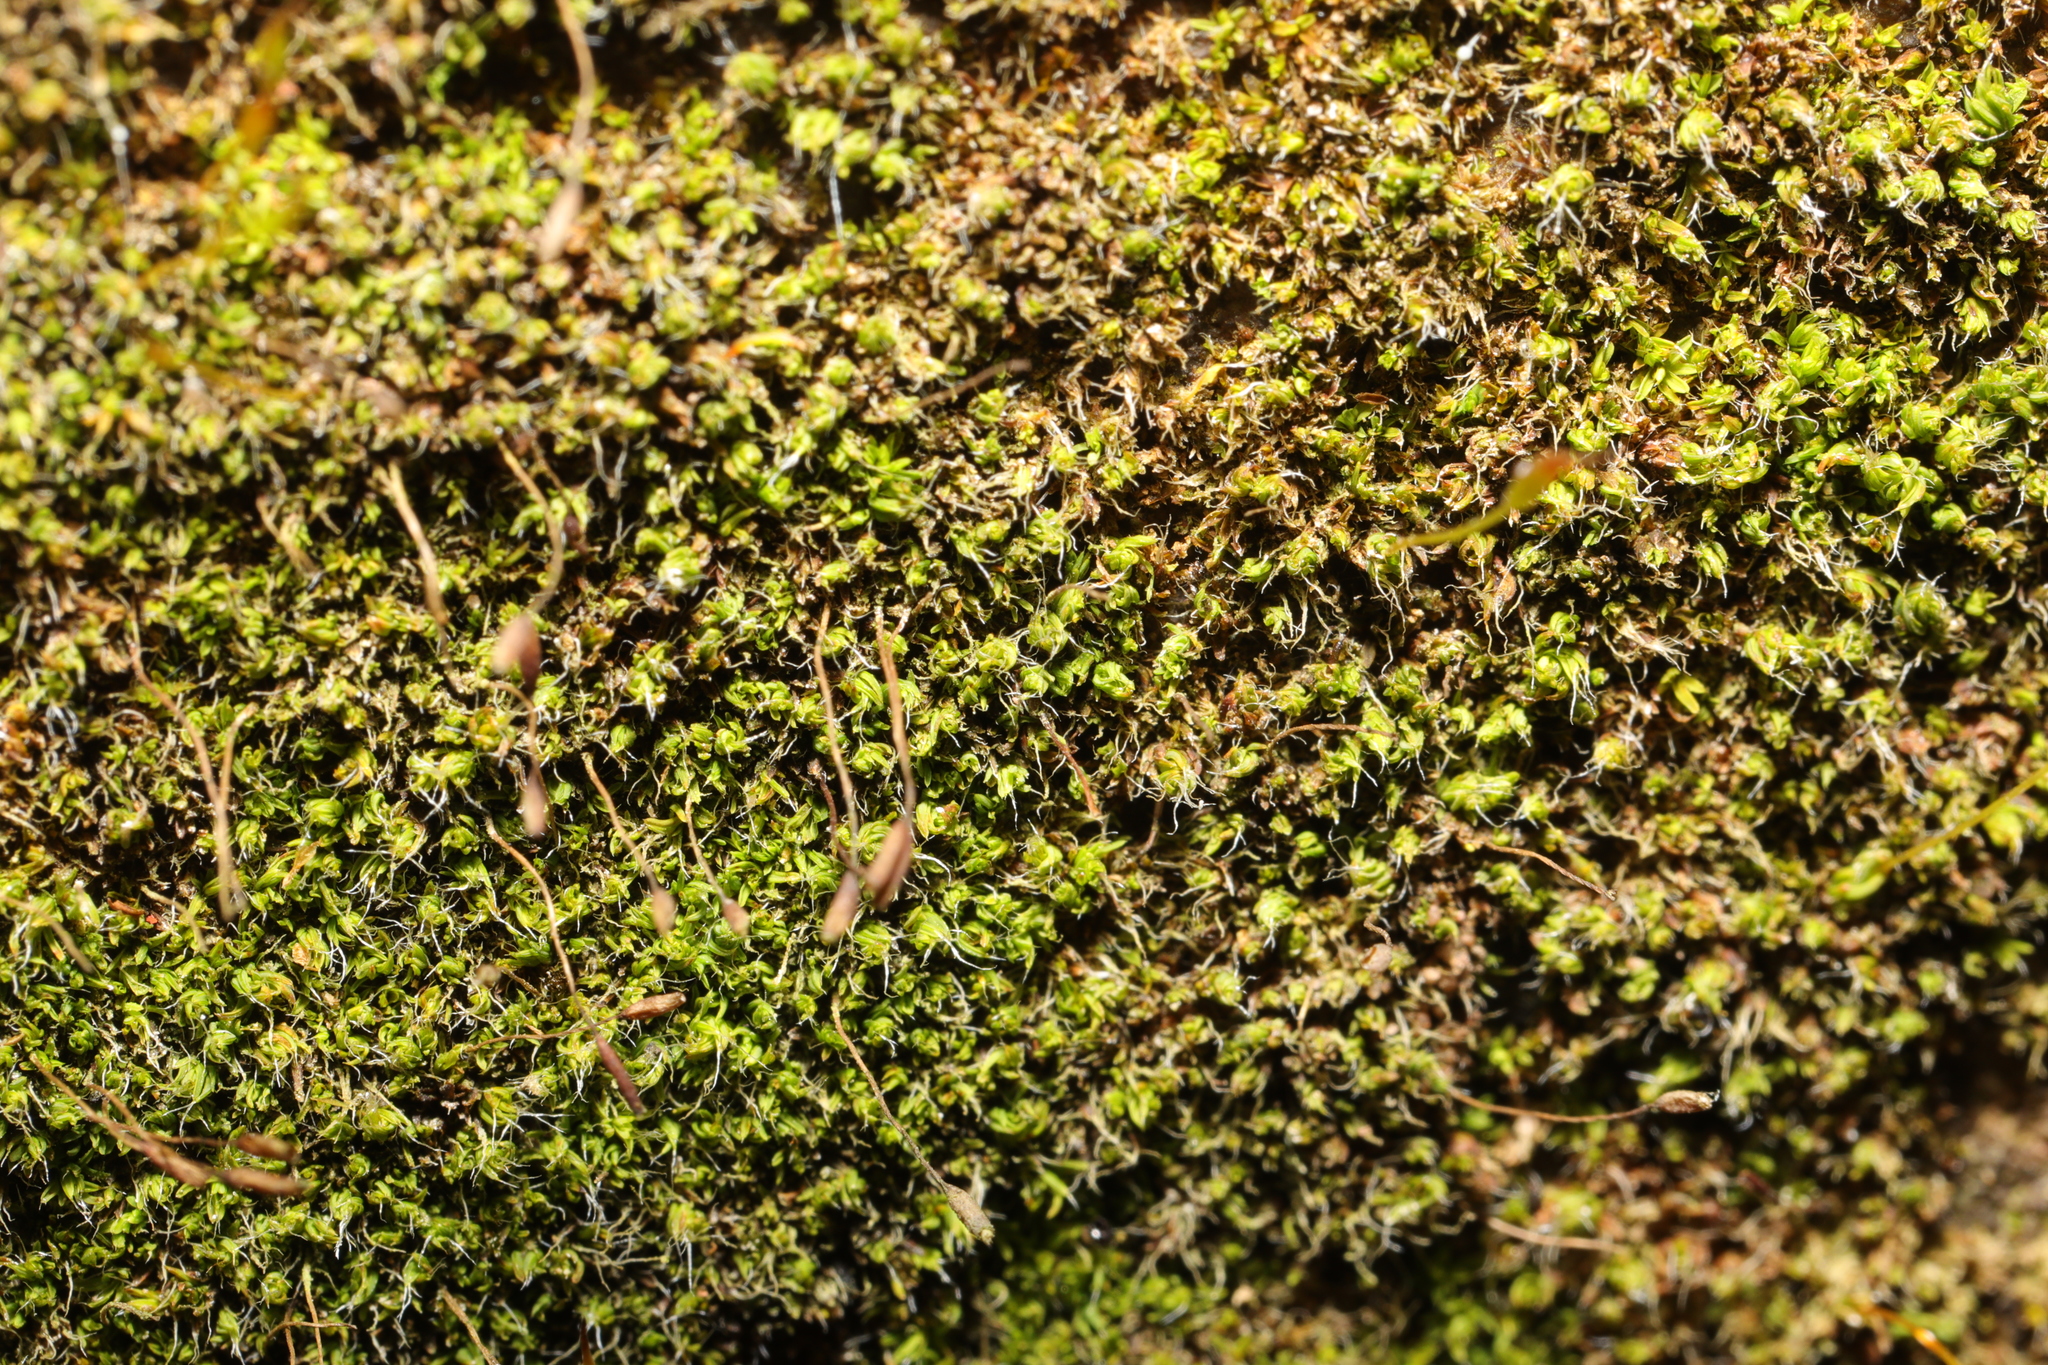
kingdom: Plantae
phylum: Bryophyta
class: Bryopsida
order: Pottiales
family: Pottiaceae
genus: Tortula
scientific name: Tortula muralis
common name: Wall screw-moss
